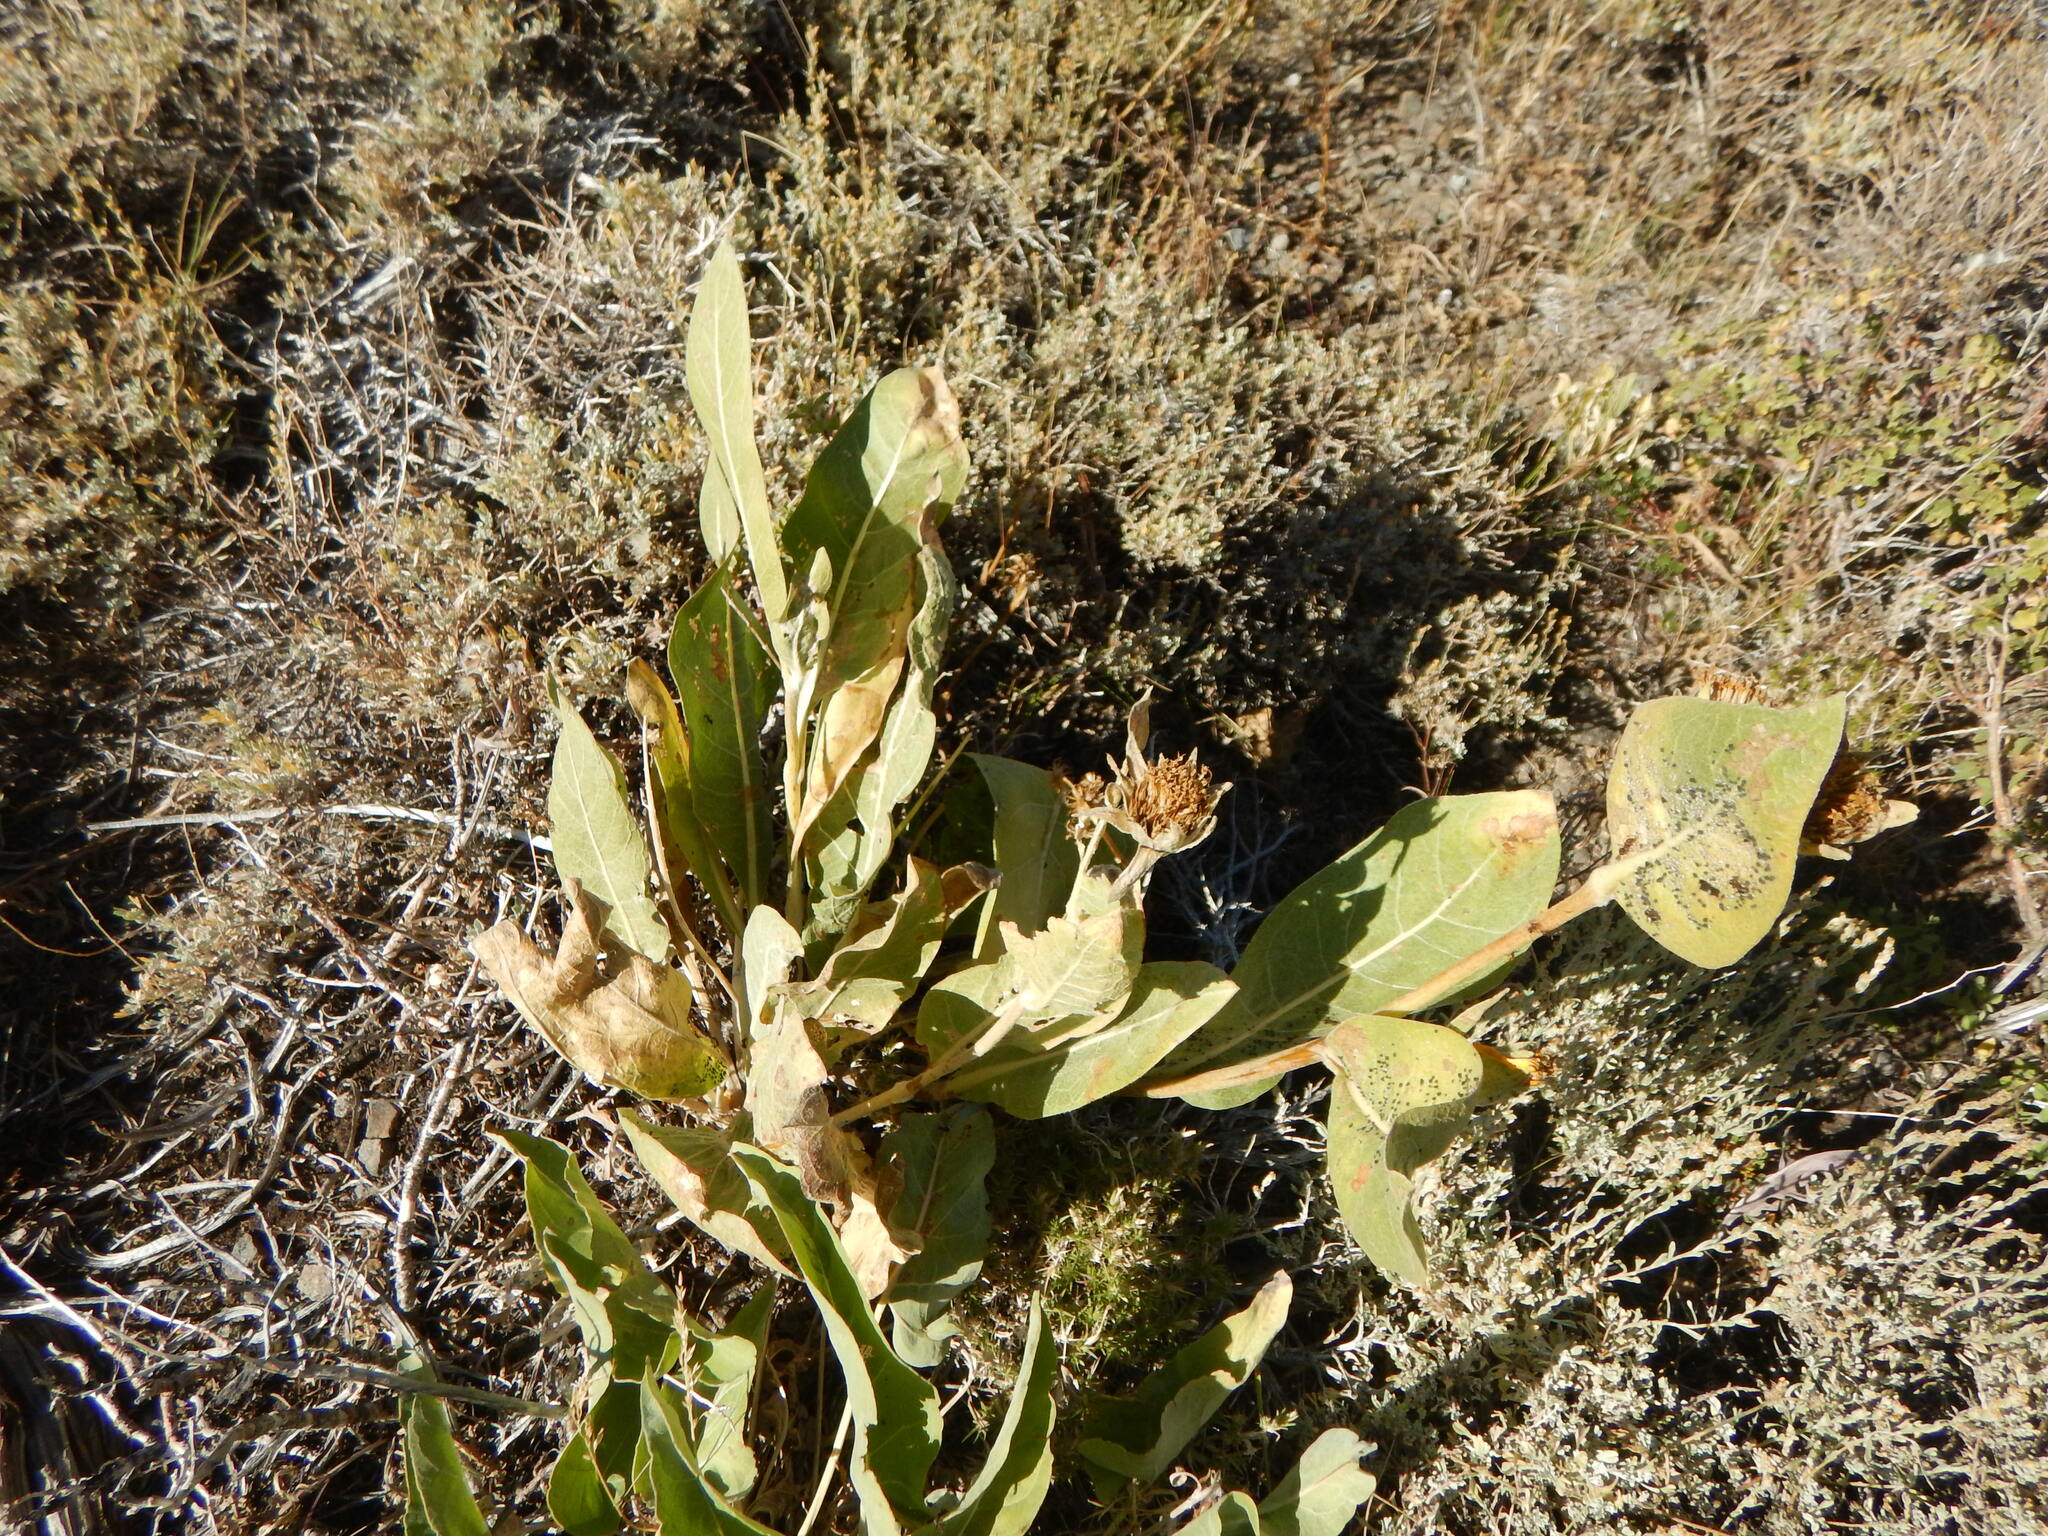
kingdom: Plantae
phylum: Tracheophyta
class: Magnoliopsida
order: Asterales
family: Asteraceae
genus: Wyethia
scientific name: Wyethia mollis
